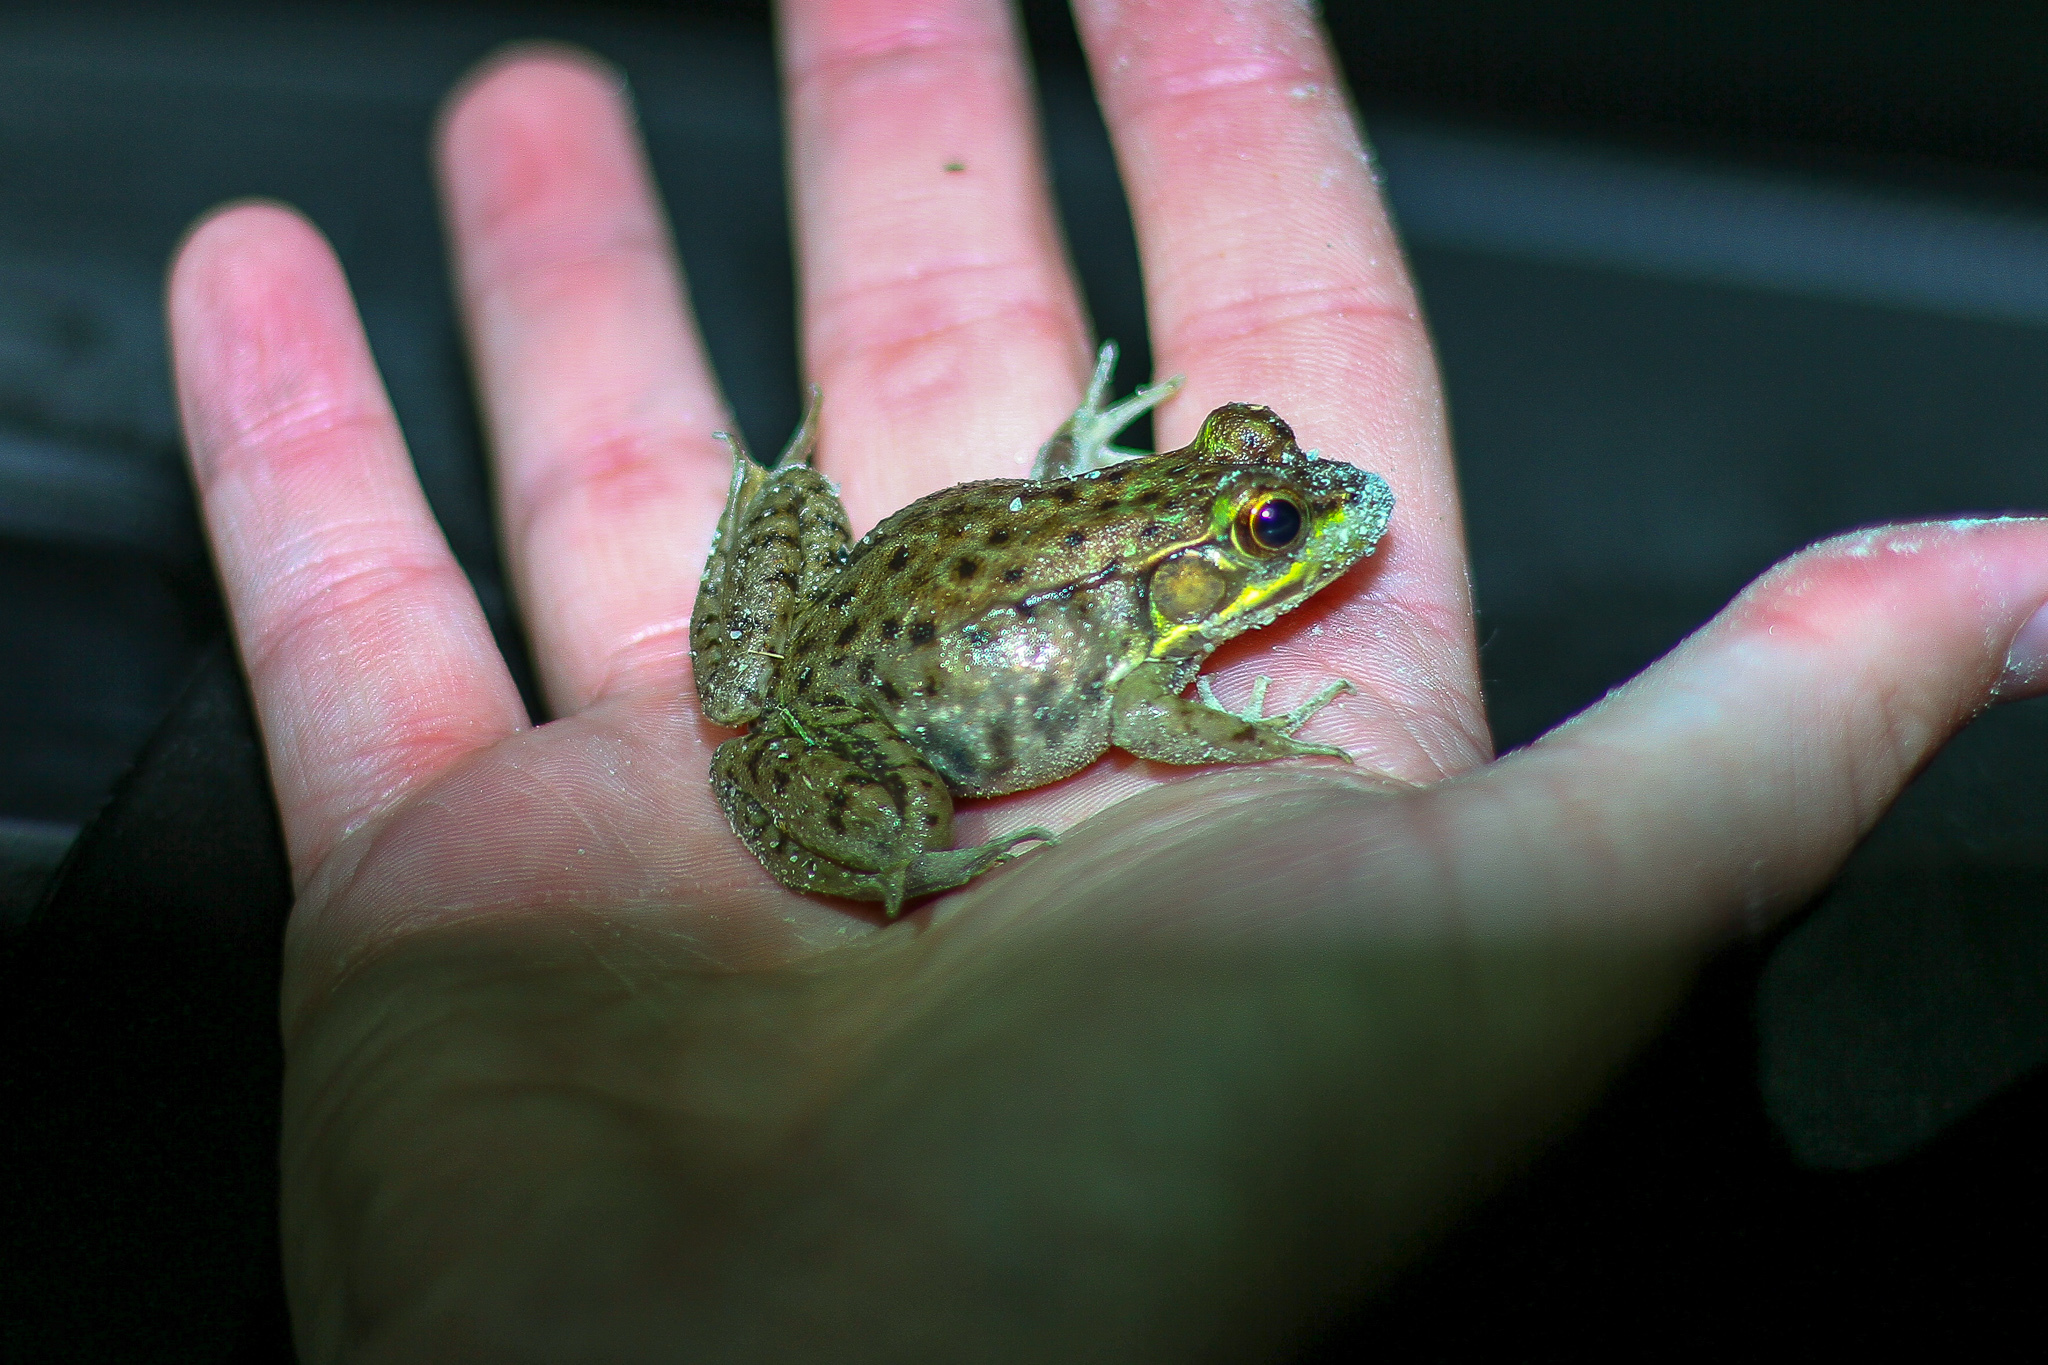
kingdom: Animalia
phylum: Chordata
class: Amphibia
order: Anura
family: Ranidae
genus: Lithobates
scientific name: Lithobates clamitans
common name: Green frog
